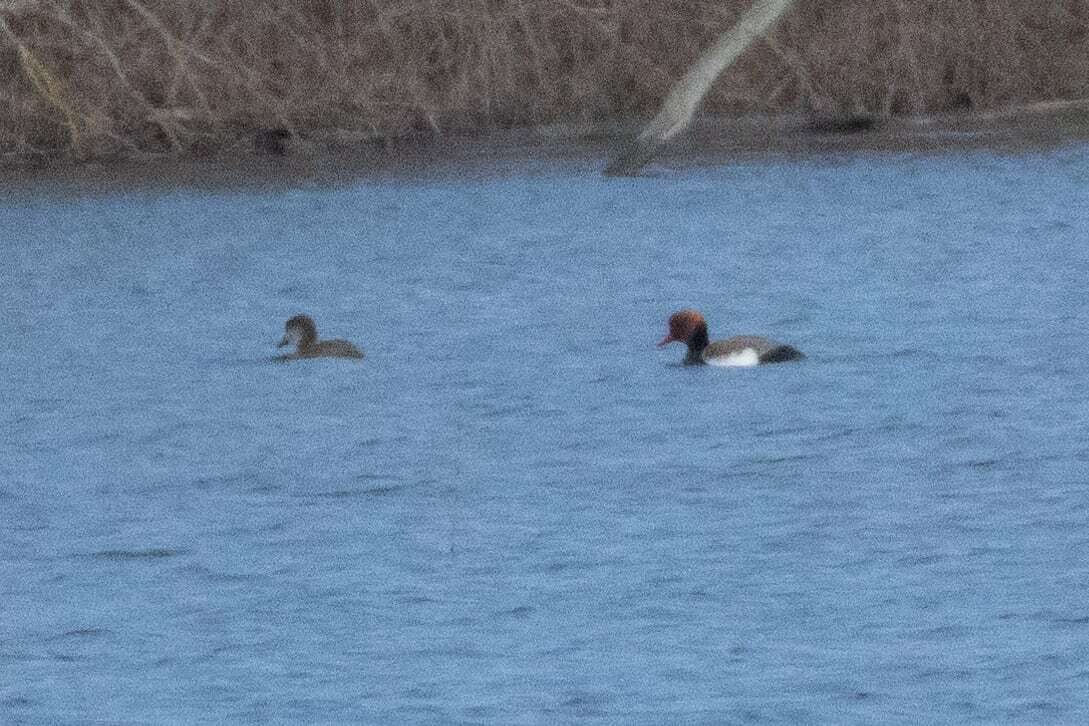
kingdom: Animalia
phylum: Chordata
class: Aves
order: Anseriformes
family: Anatidae
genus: Netta
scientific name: Netta rufina
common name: Red-crested pochard
